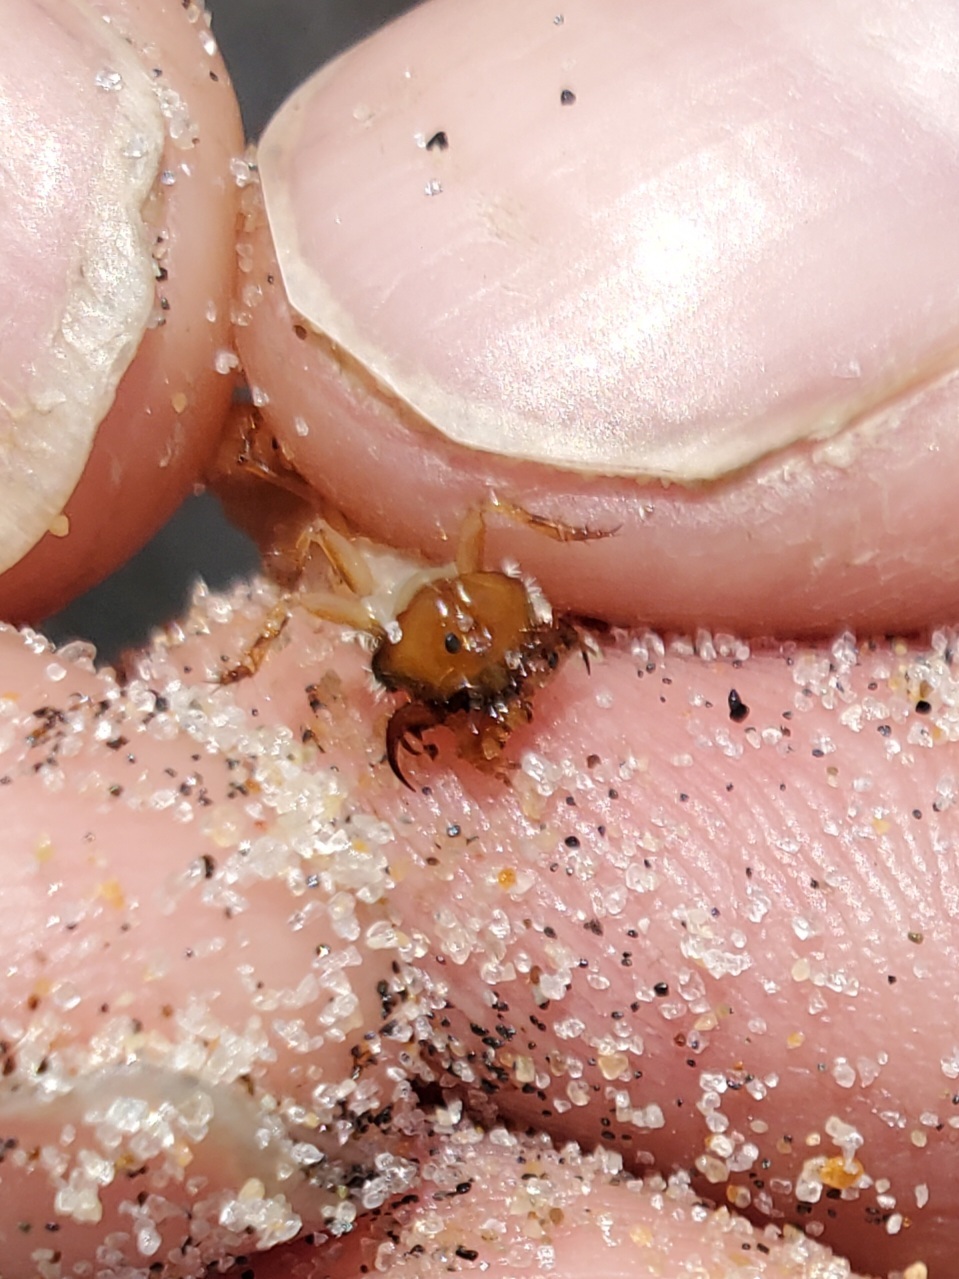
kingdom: Animalia
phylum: Arthropoda
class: Insecta
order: Coleoptera
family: Carabidae
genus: Cicindela
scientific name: Cicindela hirticollis
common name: Hairy-necked tiger beetle
